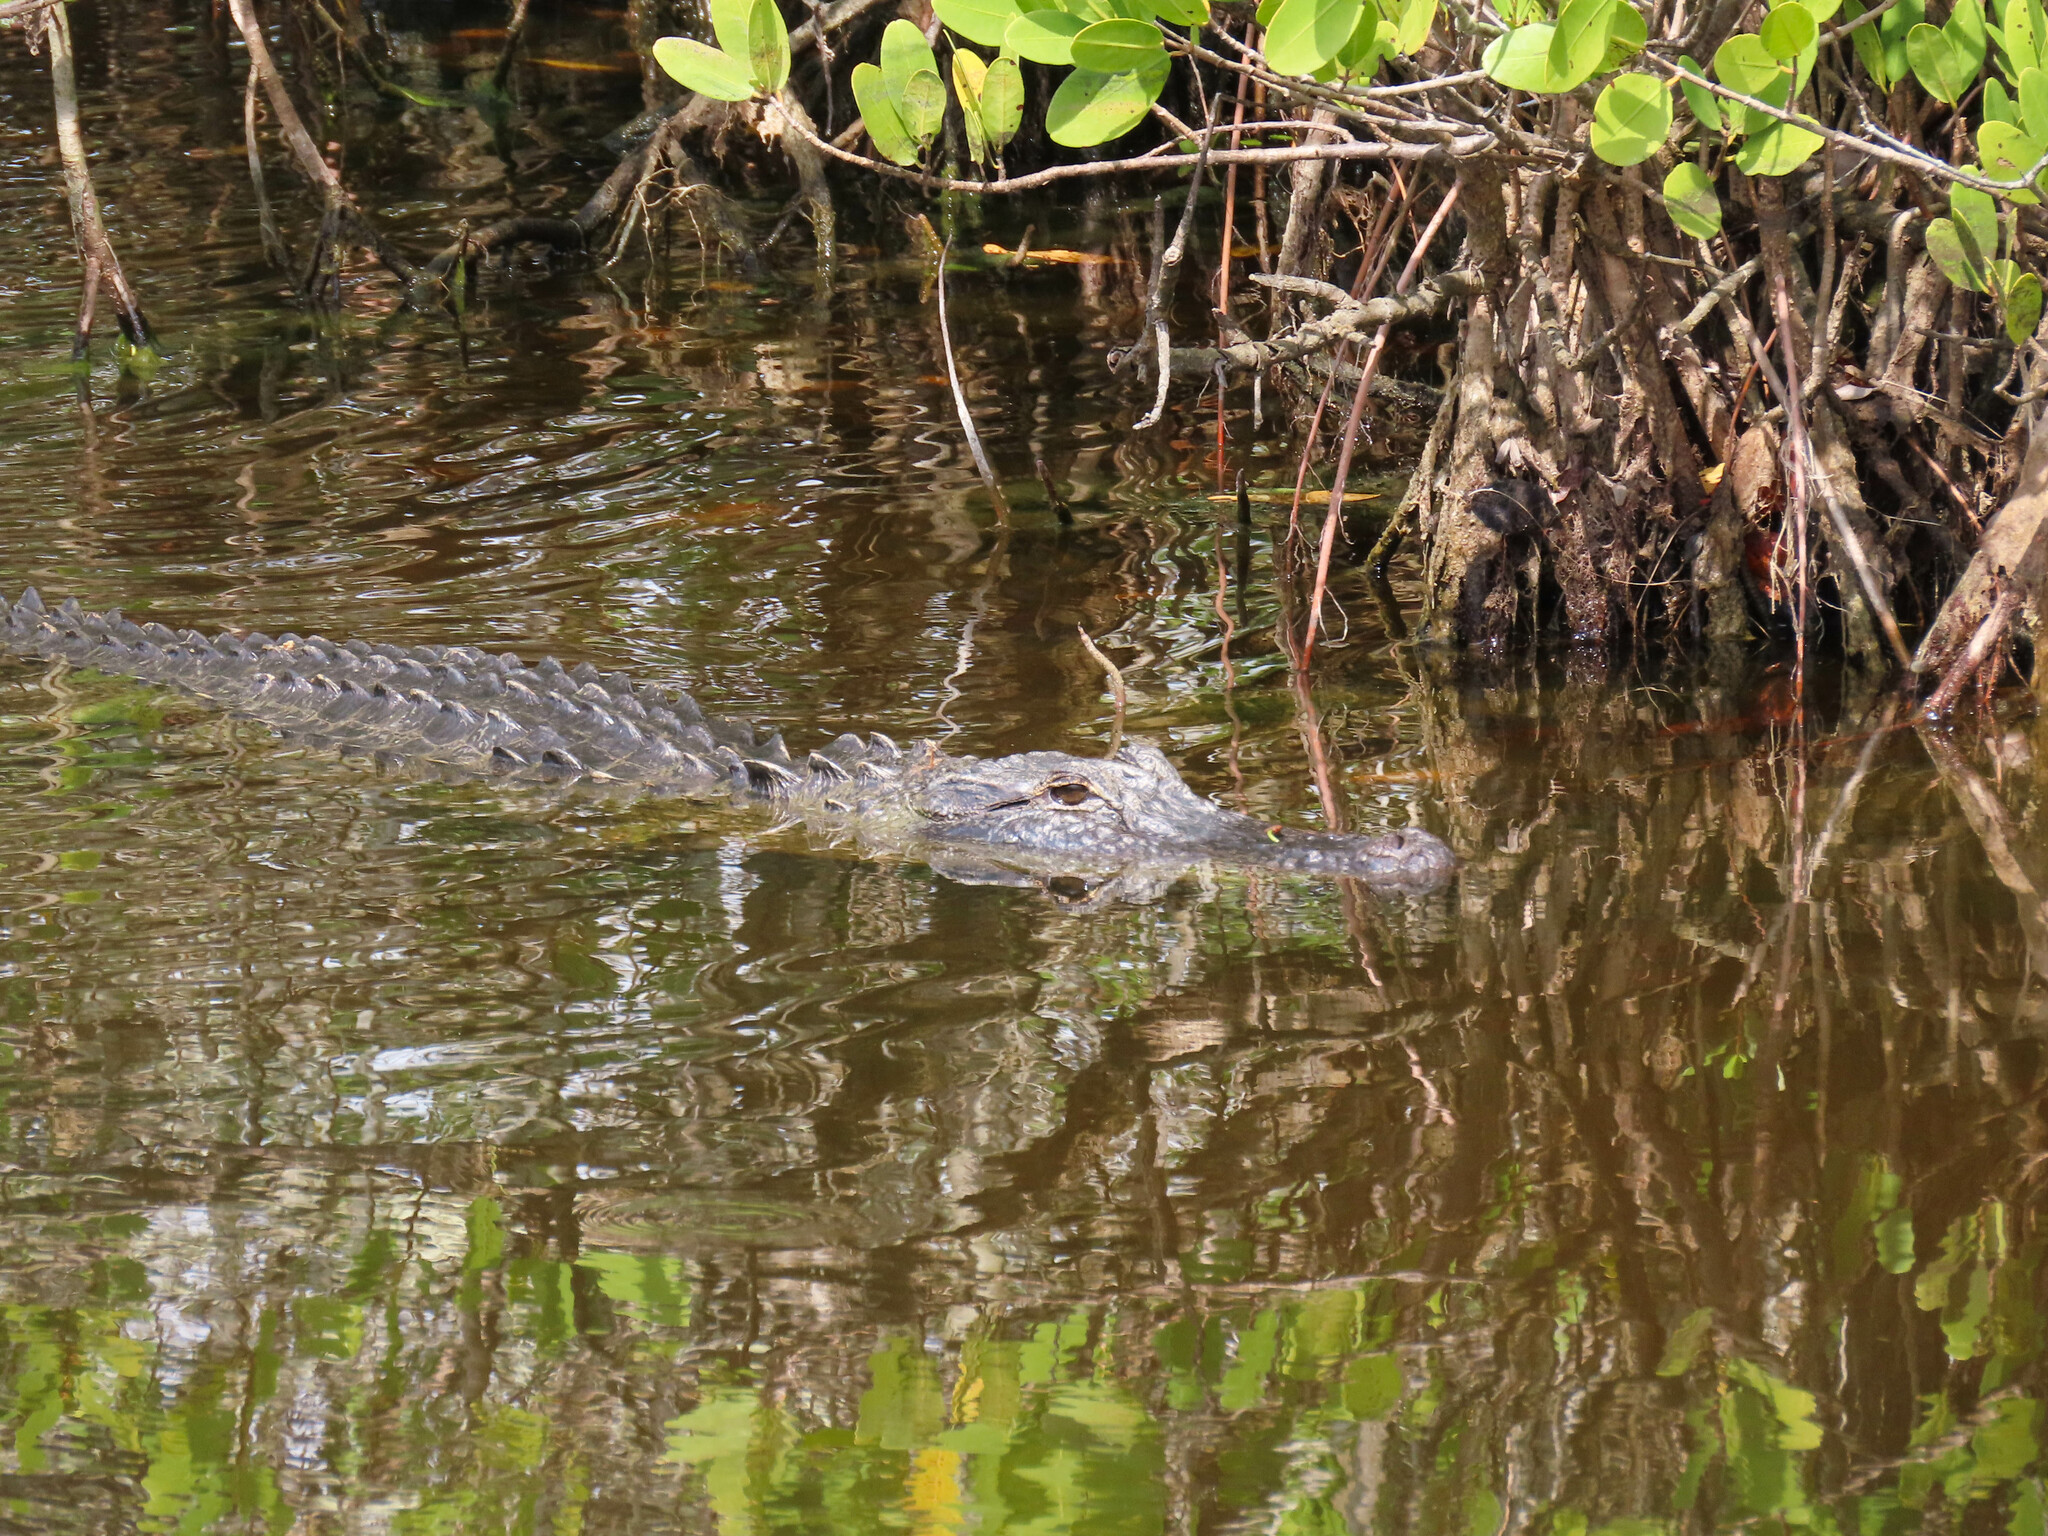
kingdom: Animalia
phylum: Chordata
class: Crocodylia
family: Alligatoridae
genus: Alligator
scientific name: Alligator mississippiensis
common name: American alligator
